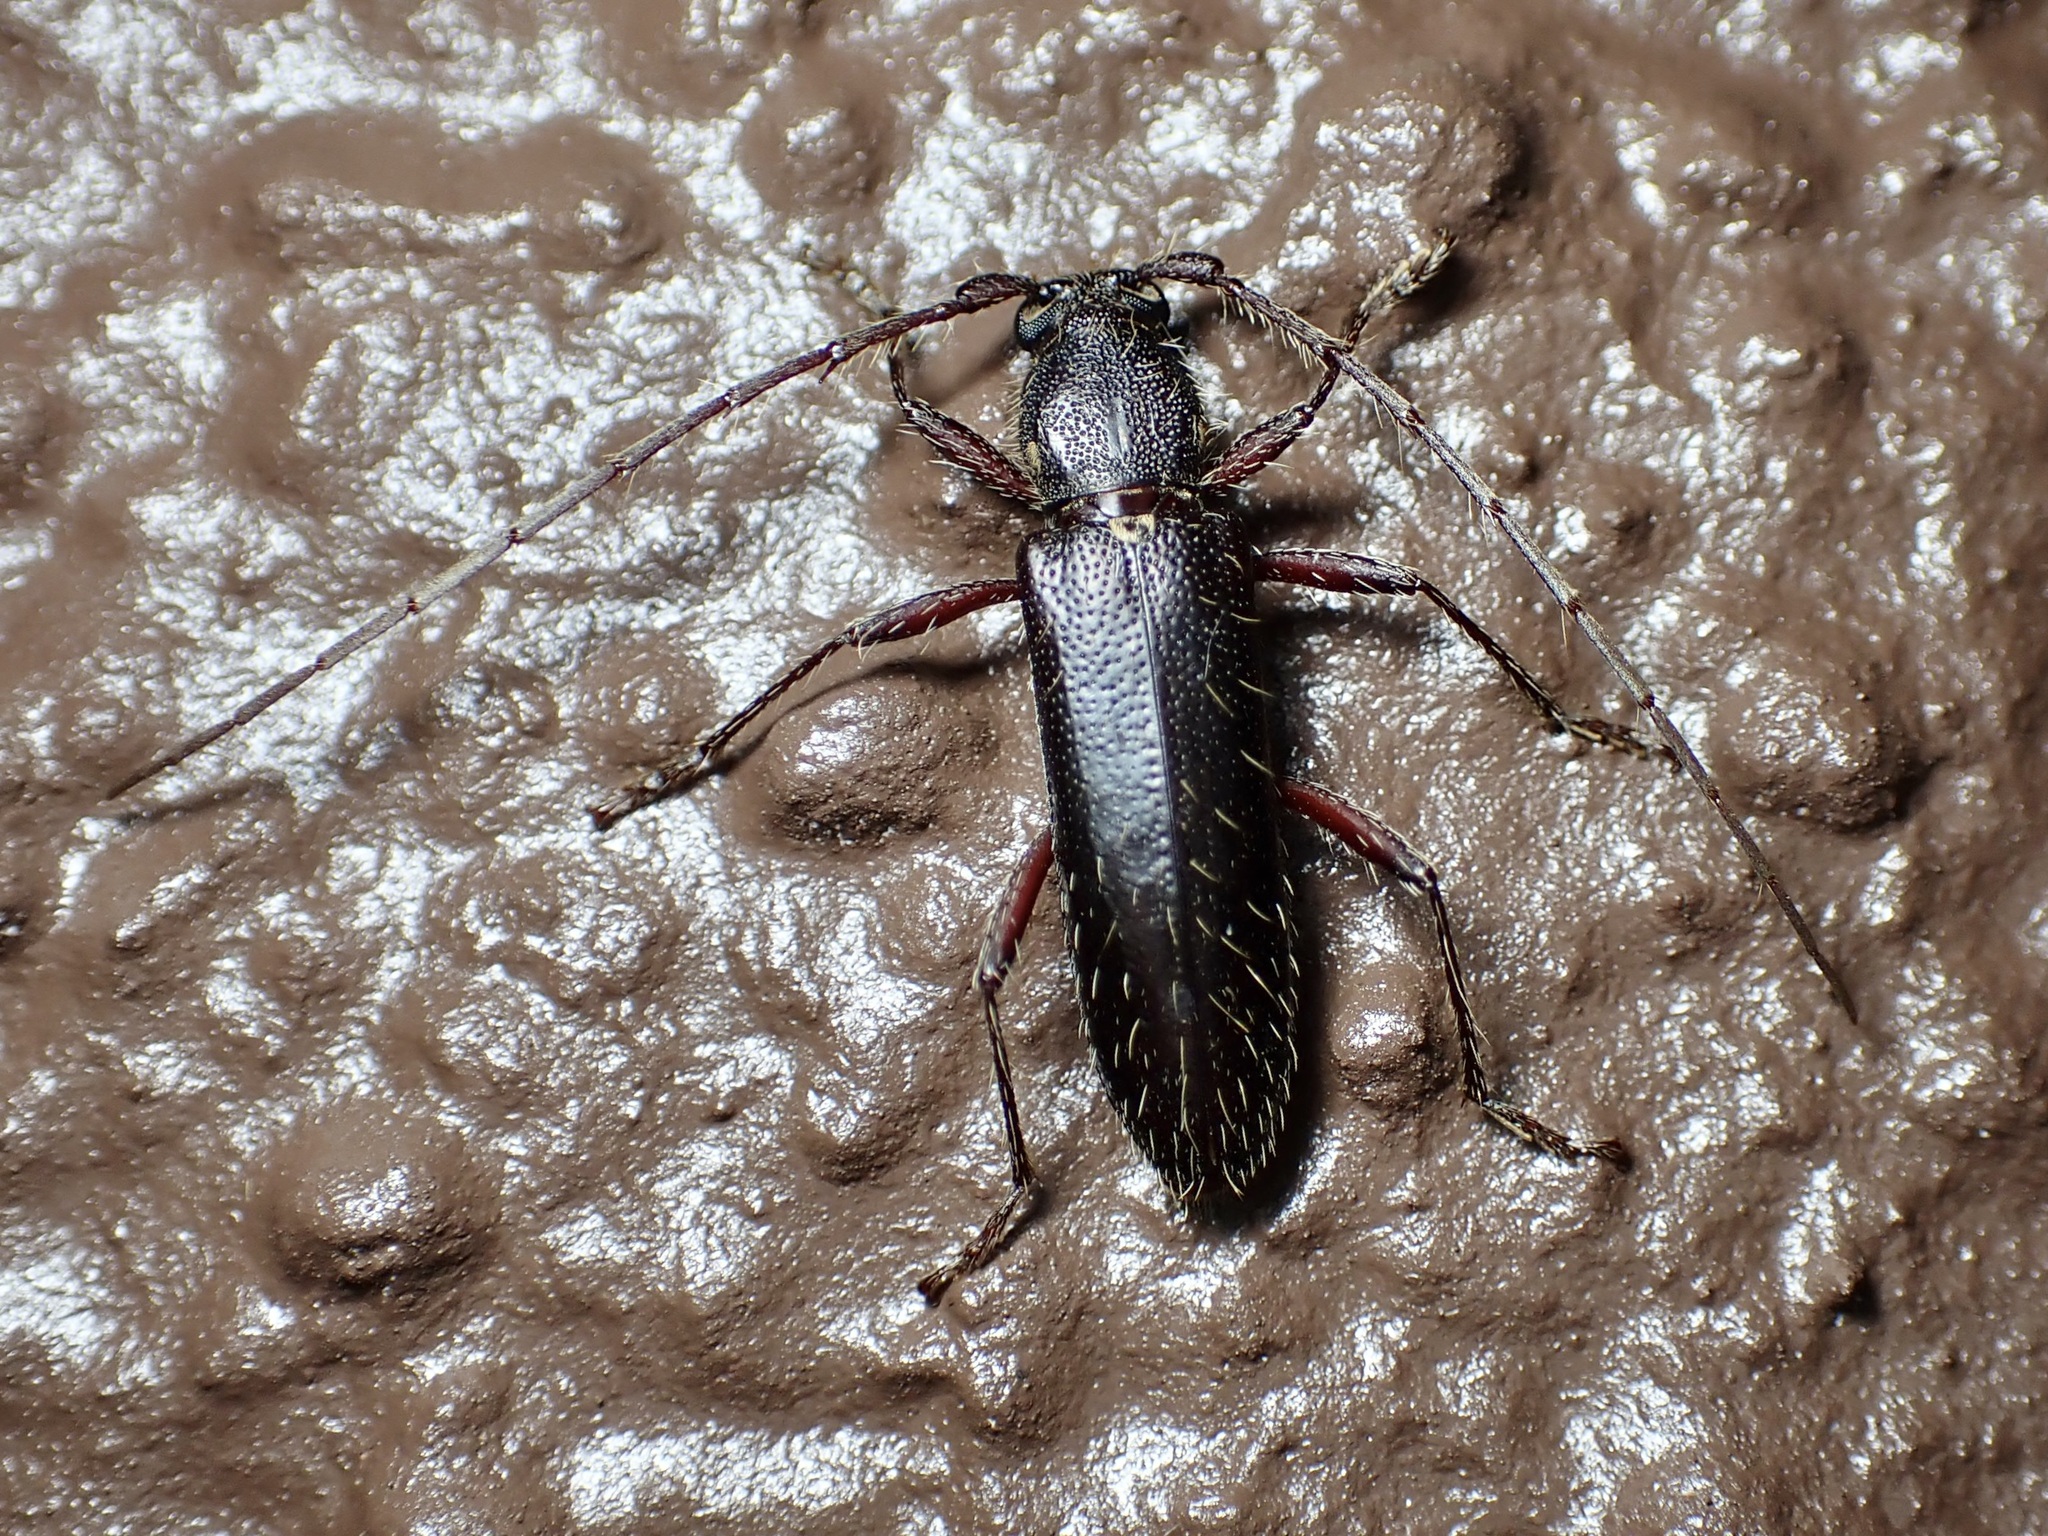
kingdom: Animalia
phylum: Arthropoda
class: Insecta
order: Coleoptera
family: Cerambycidae
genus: Stenelaphus
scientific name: Stenelaphus alienus
